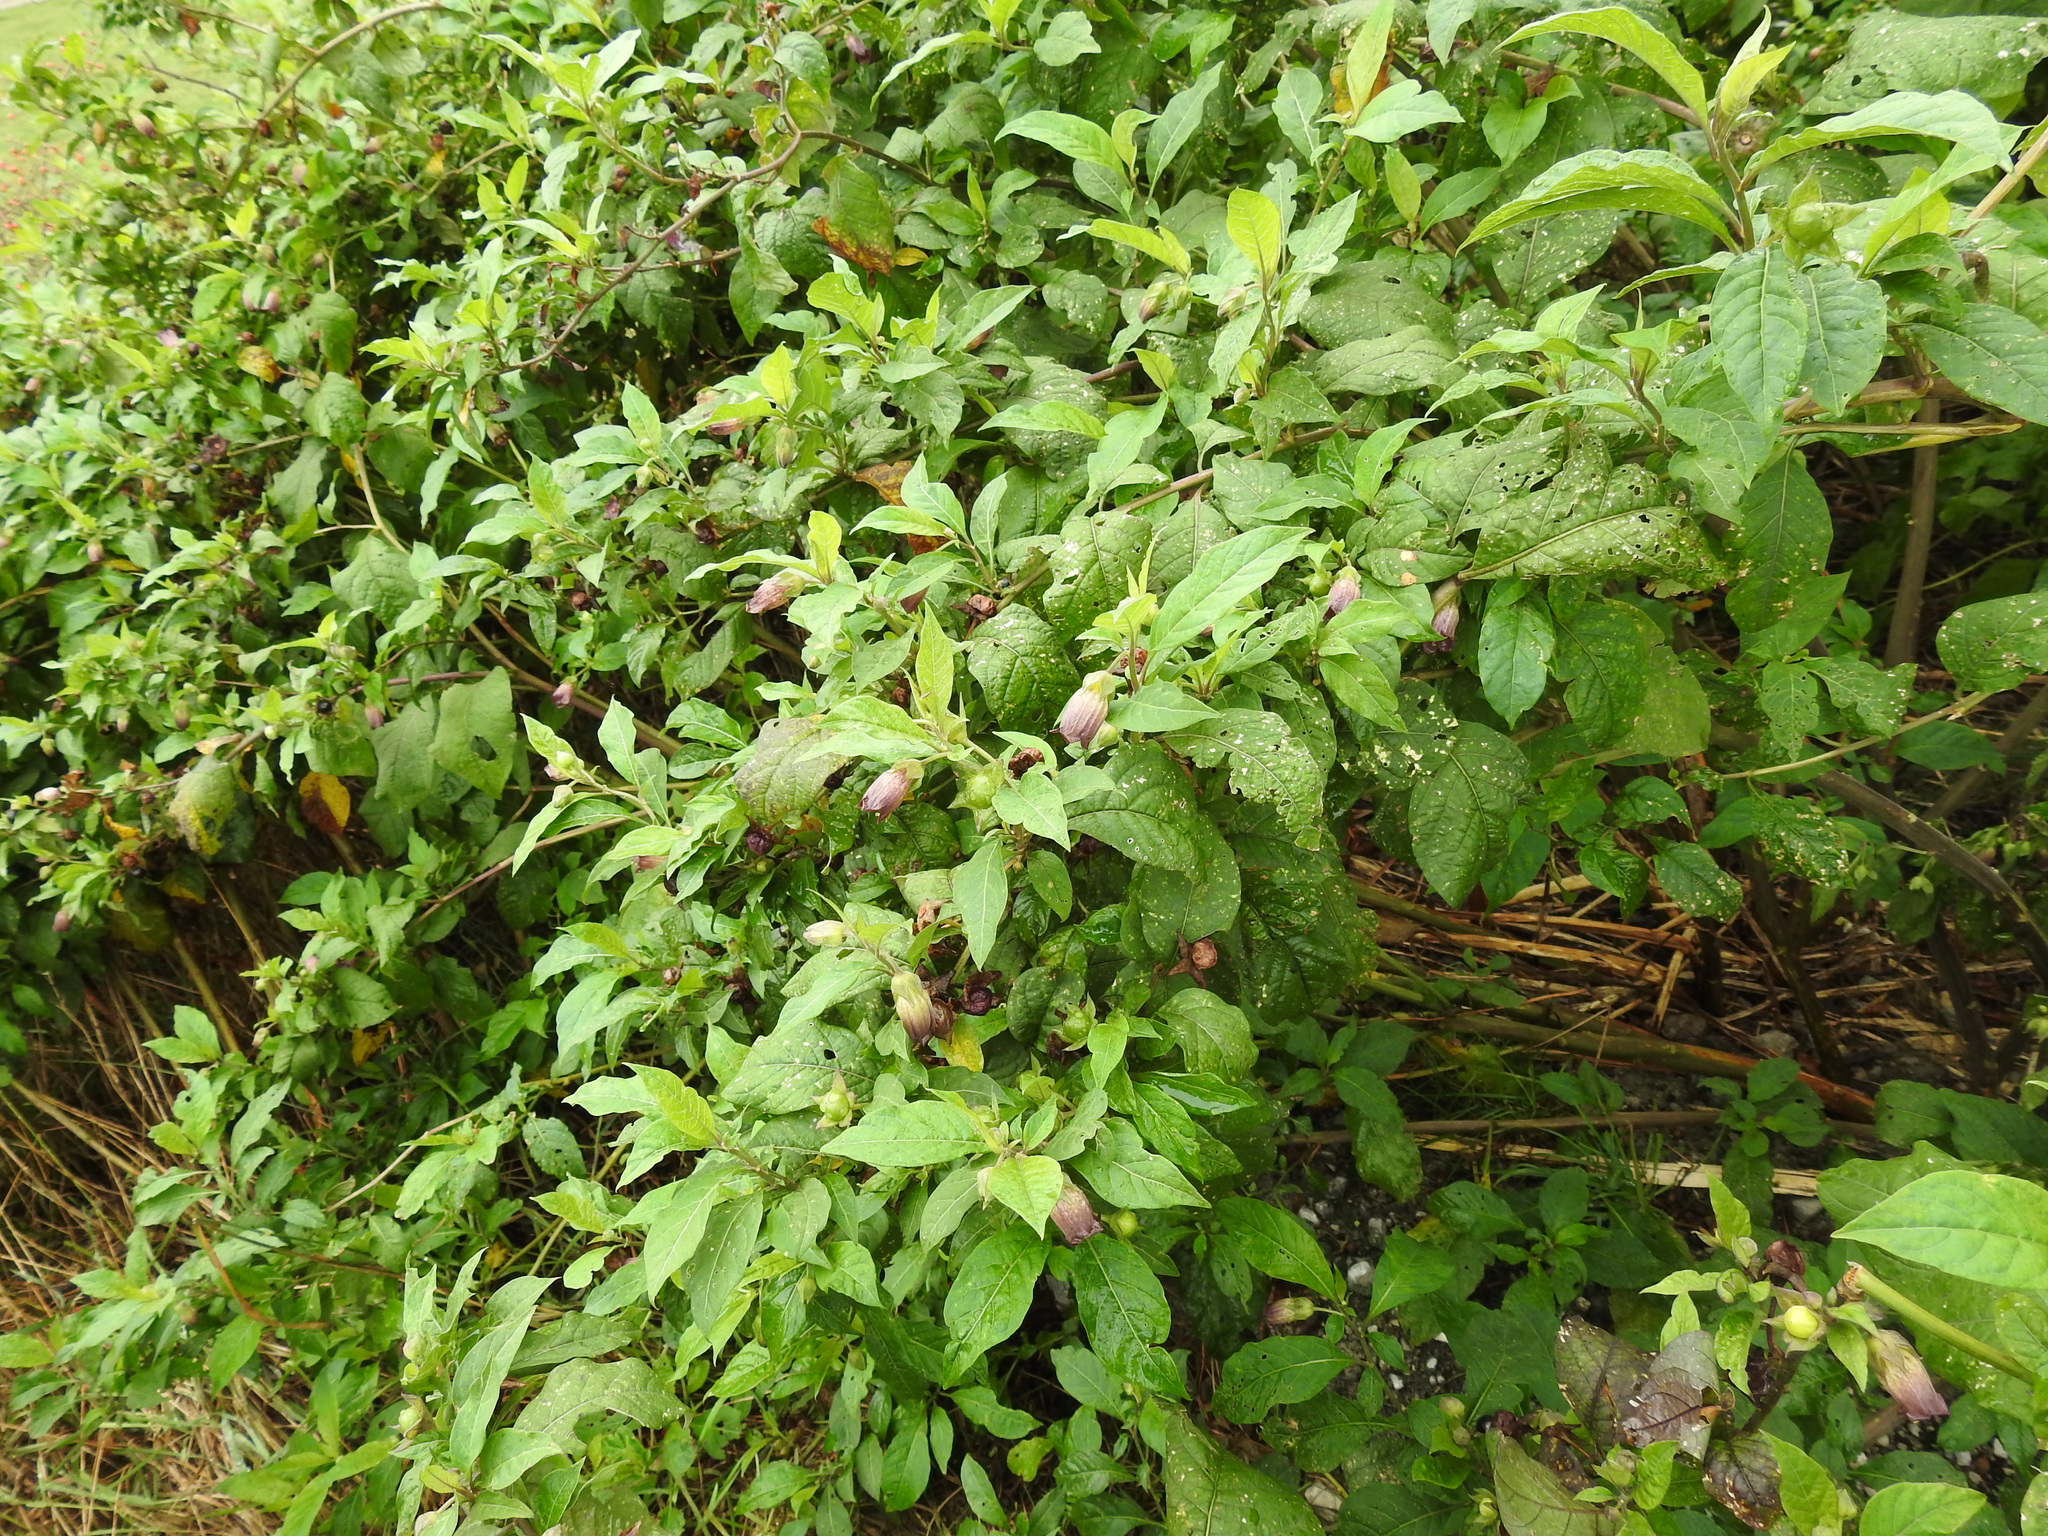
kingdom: Plantae
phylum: Tracheophyta
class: Magnoliopsida
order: Solanales
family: Solanaceae
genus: Atropa
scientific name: Atropa belladonna
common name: Deadly nightshade
